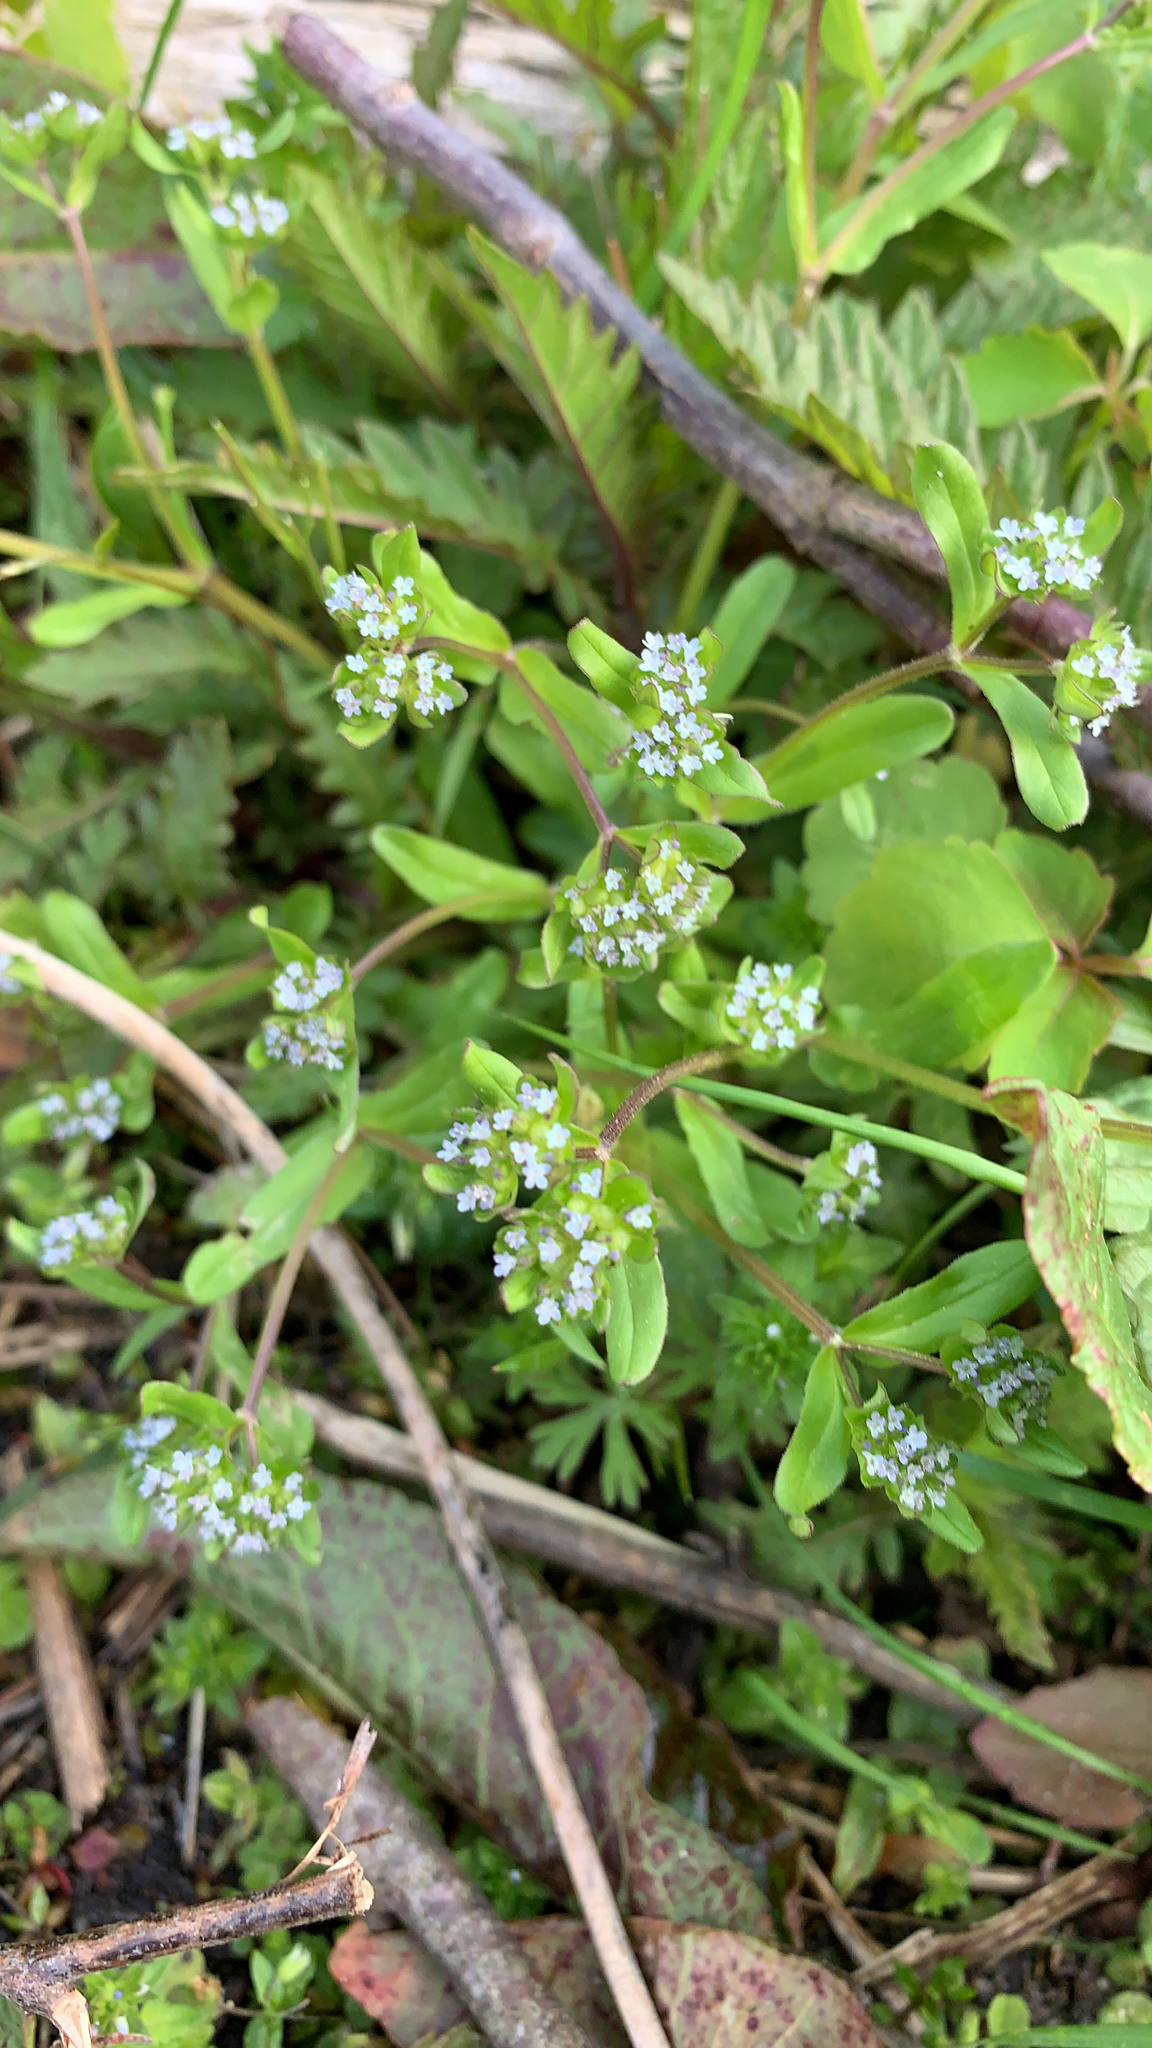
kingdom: Plantae
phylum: Tracheophyta
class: Magnoliopsida
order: Dipsacales
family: Caprifoliaceae
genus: Valerianella
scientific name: Valerianella locusta
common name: Common cornsalad
